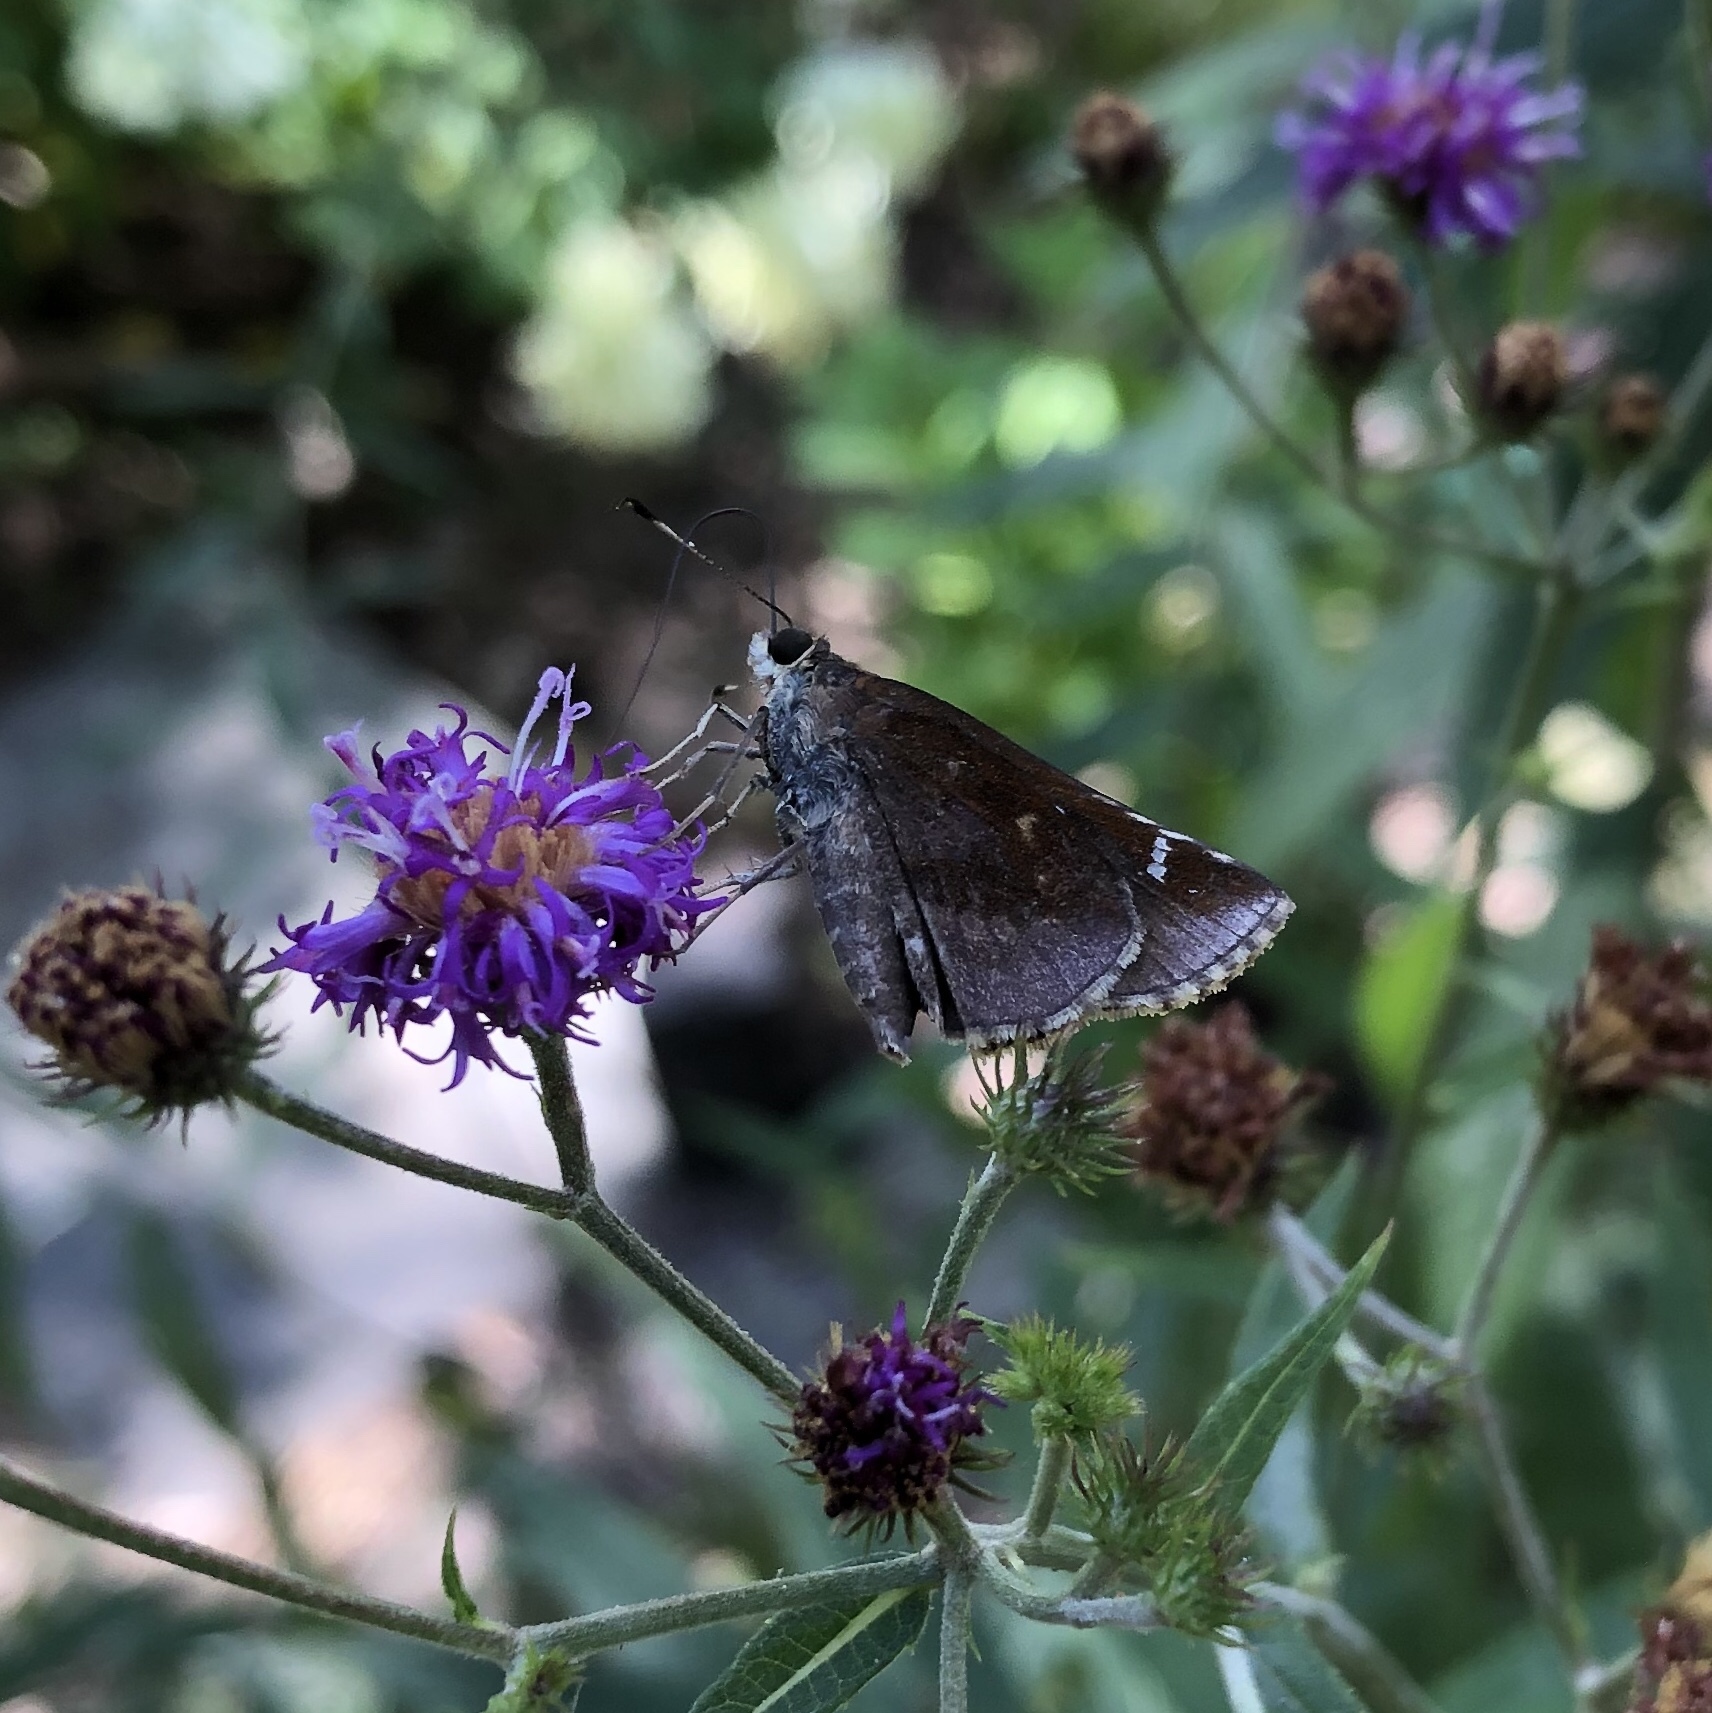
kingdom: Animalia
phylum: Arthropoda
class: Insecta
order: Lepidoptera
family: Hesperiidae
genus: Lerema
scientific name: Lerema accius
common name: Clouded skipper
